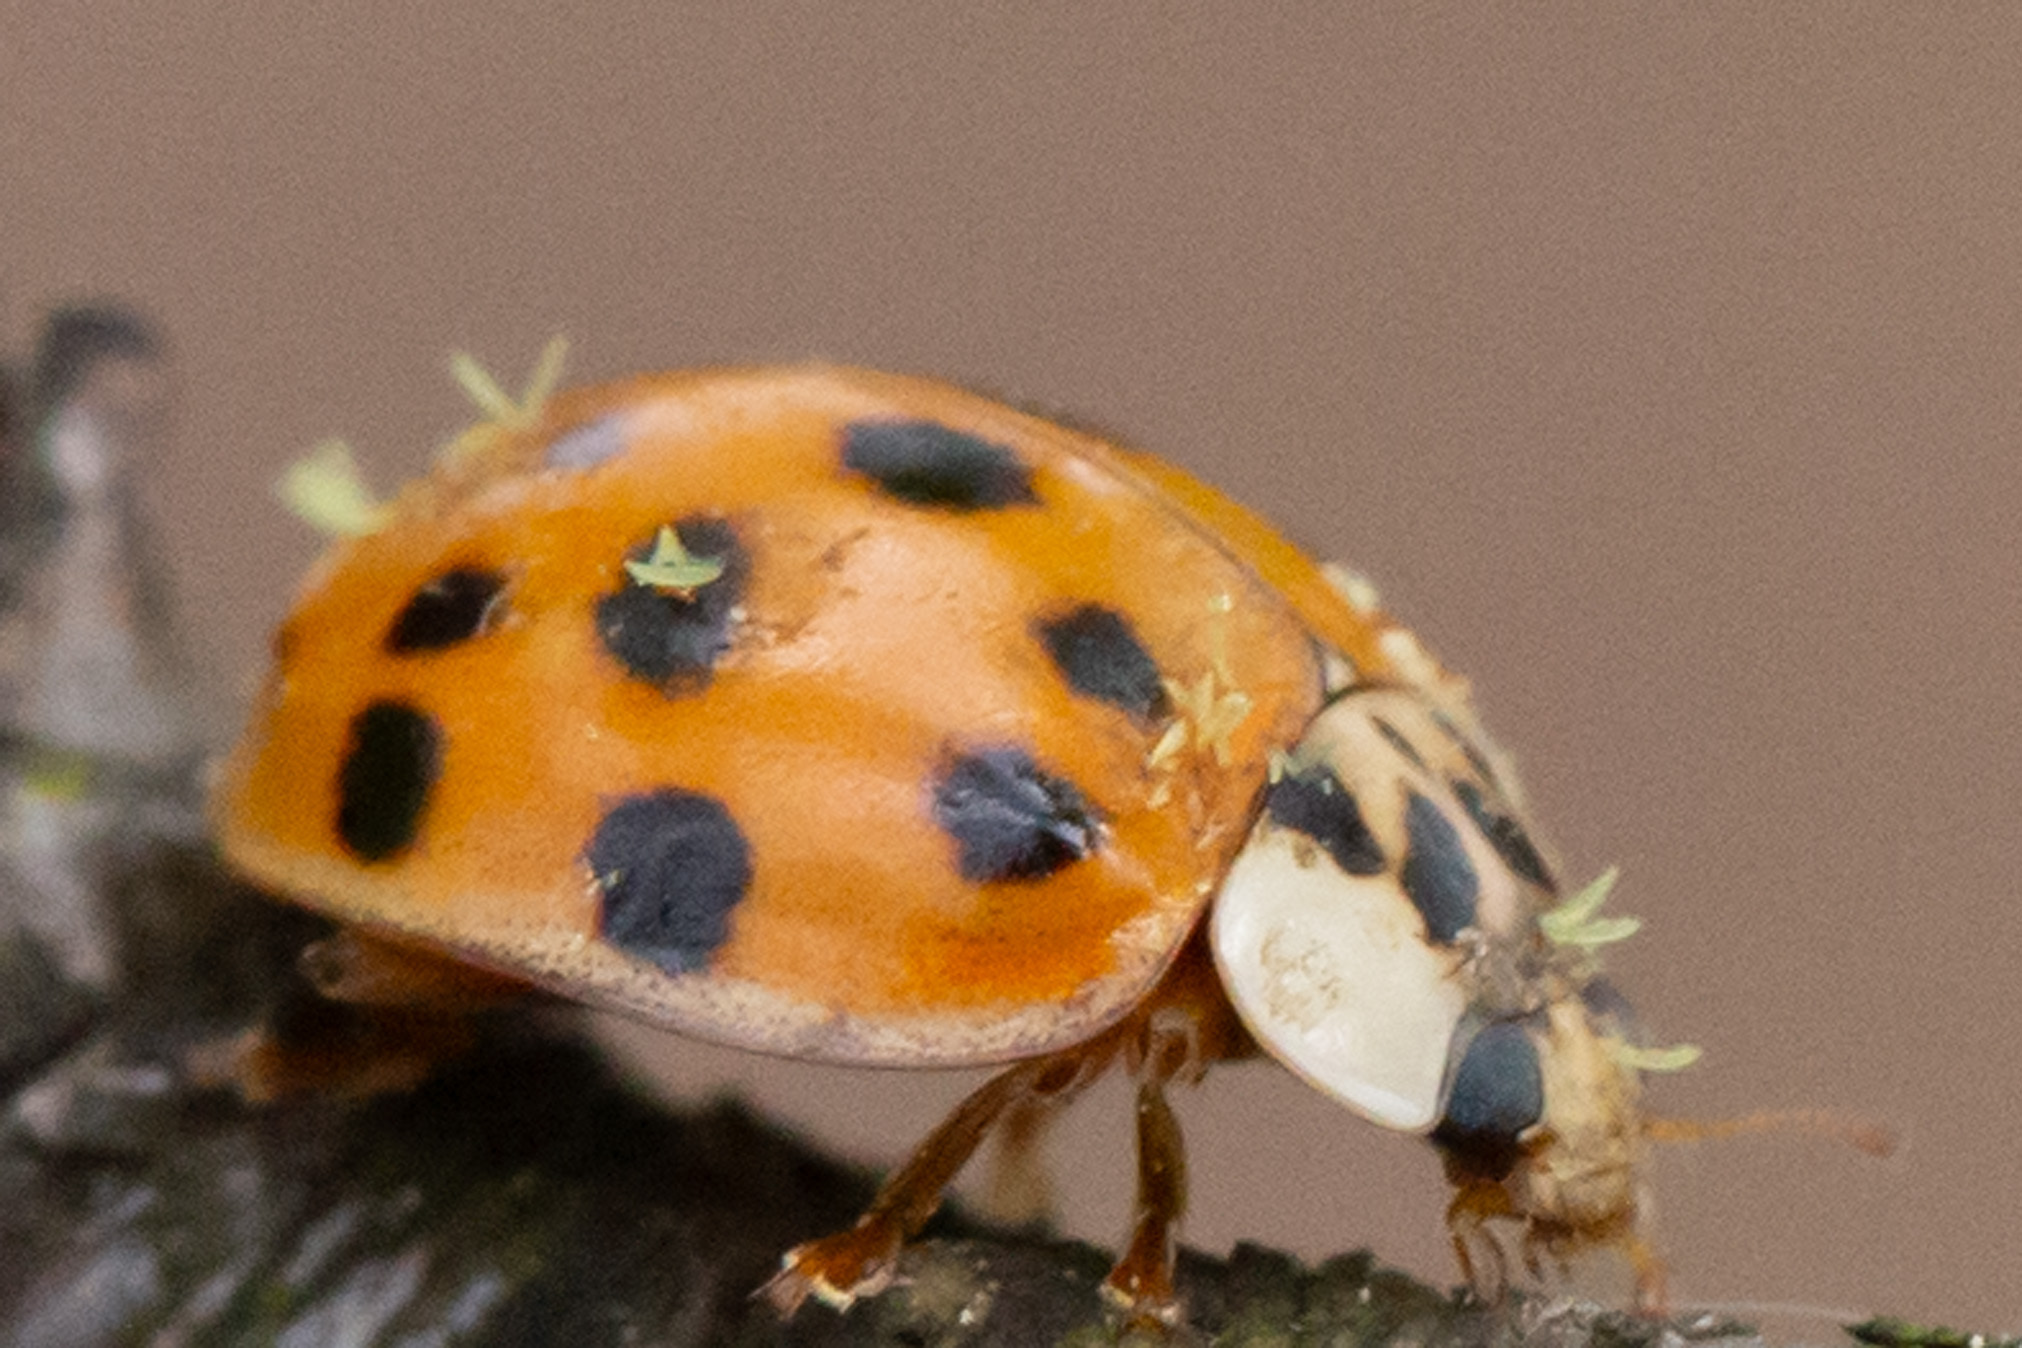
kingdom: Fungi
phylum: Ascomycota
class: Laboulbeniomycetes
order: Laboulbeniales
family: Laboulbeniaceae
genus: Hesperomyces
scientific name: Hesperomyces harmoniae
